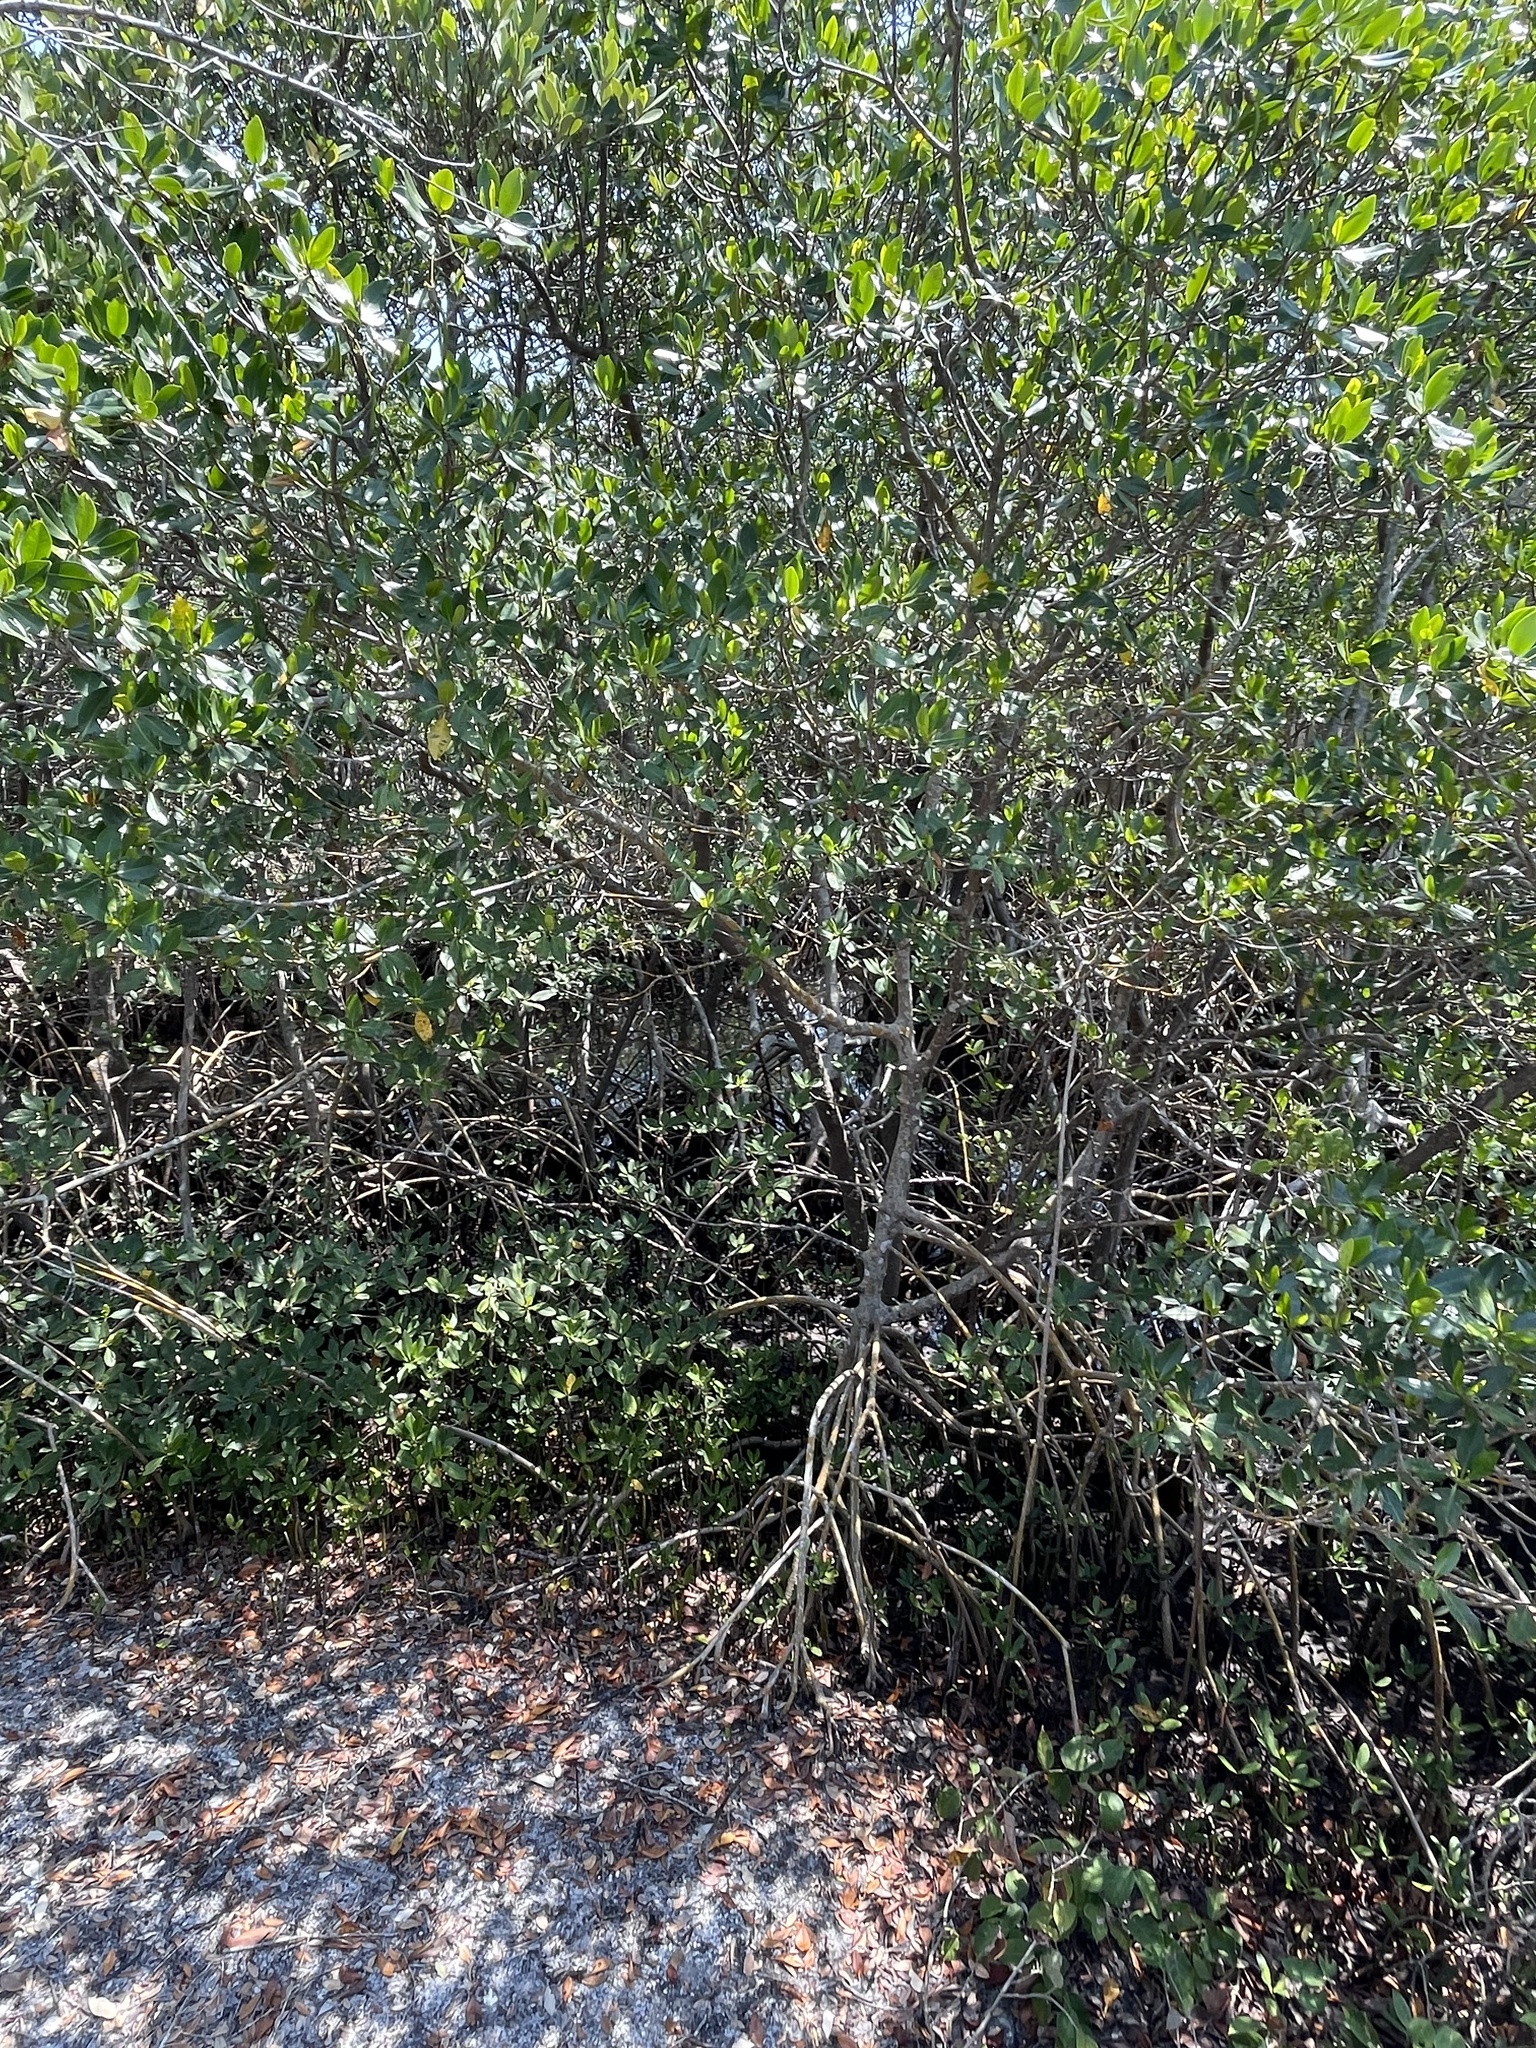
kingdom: Plantae
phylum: Tracheophyta
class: Magnoliopsida
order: Malpighiales
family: Rhizophoraceae
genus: Rhizophora
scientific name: Rhizophora mangle
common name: Red mangrove
